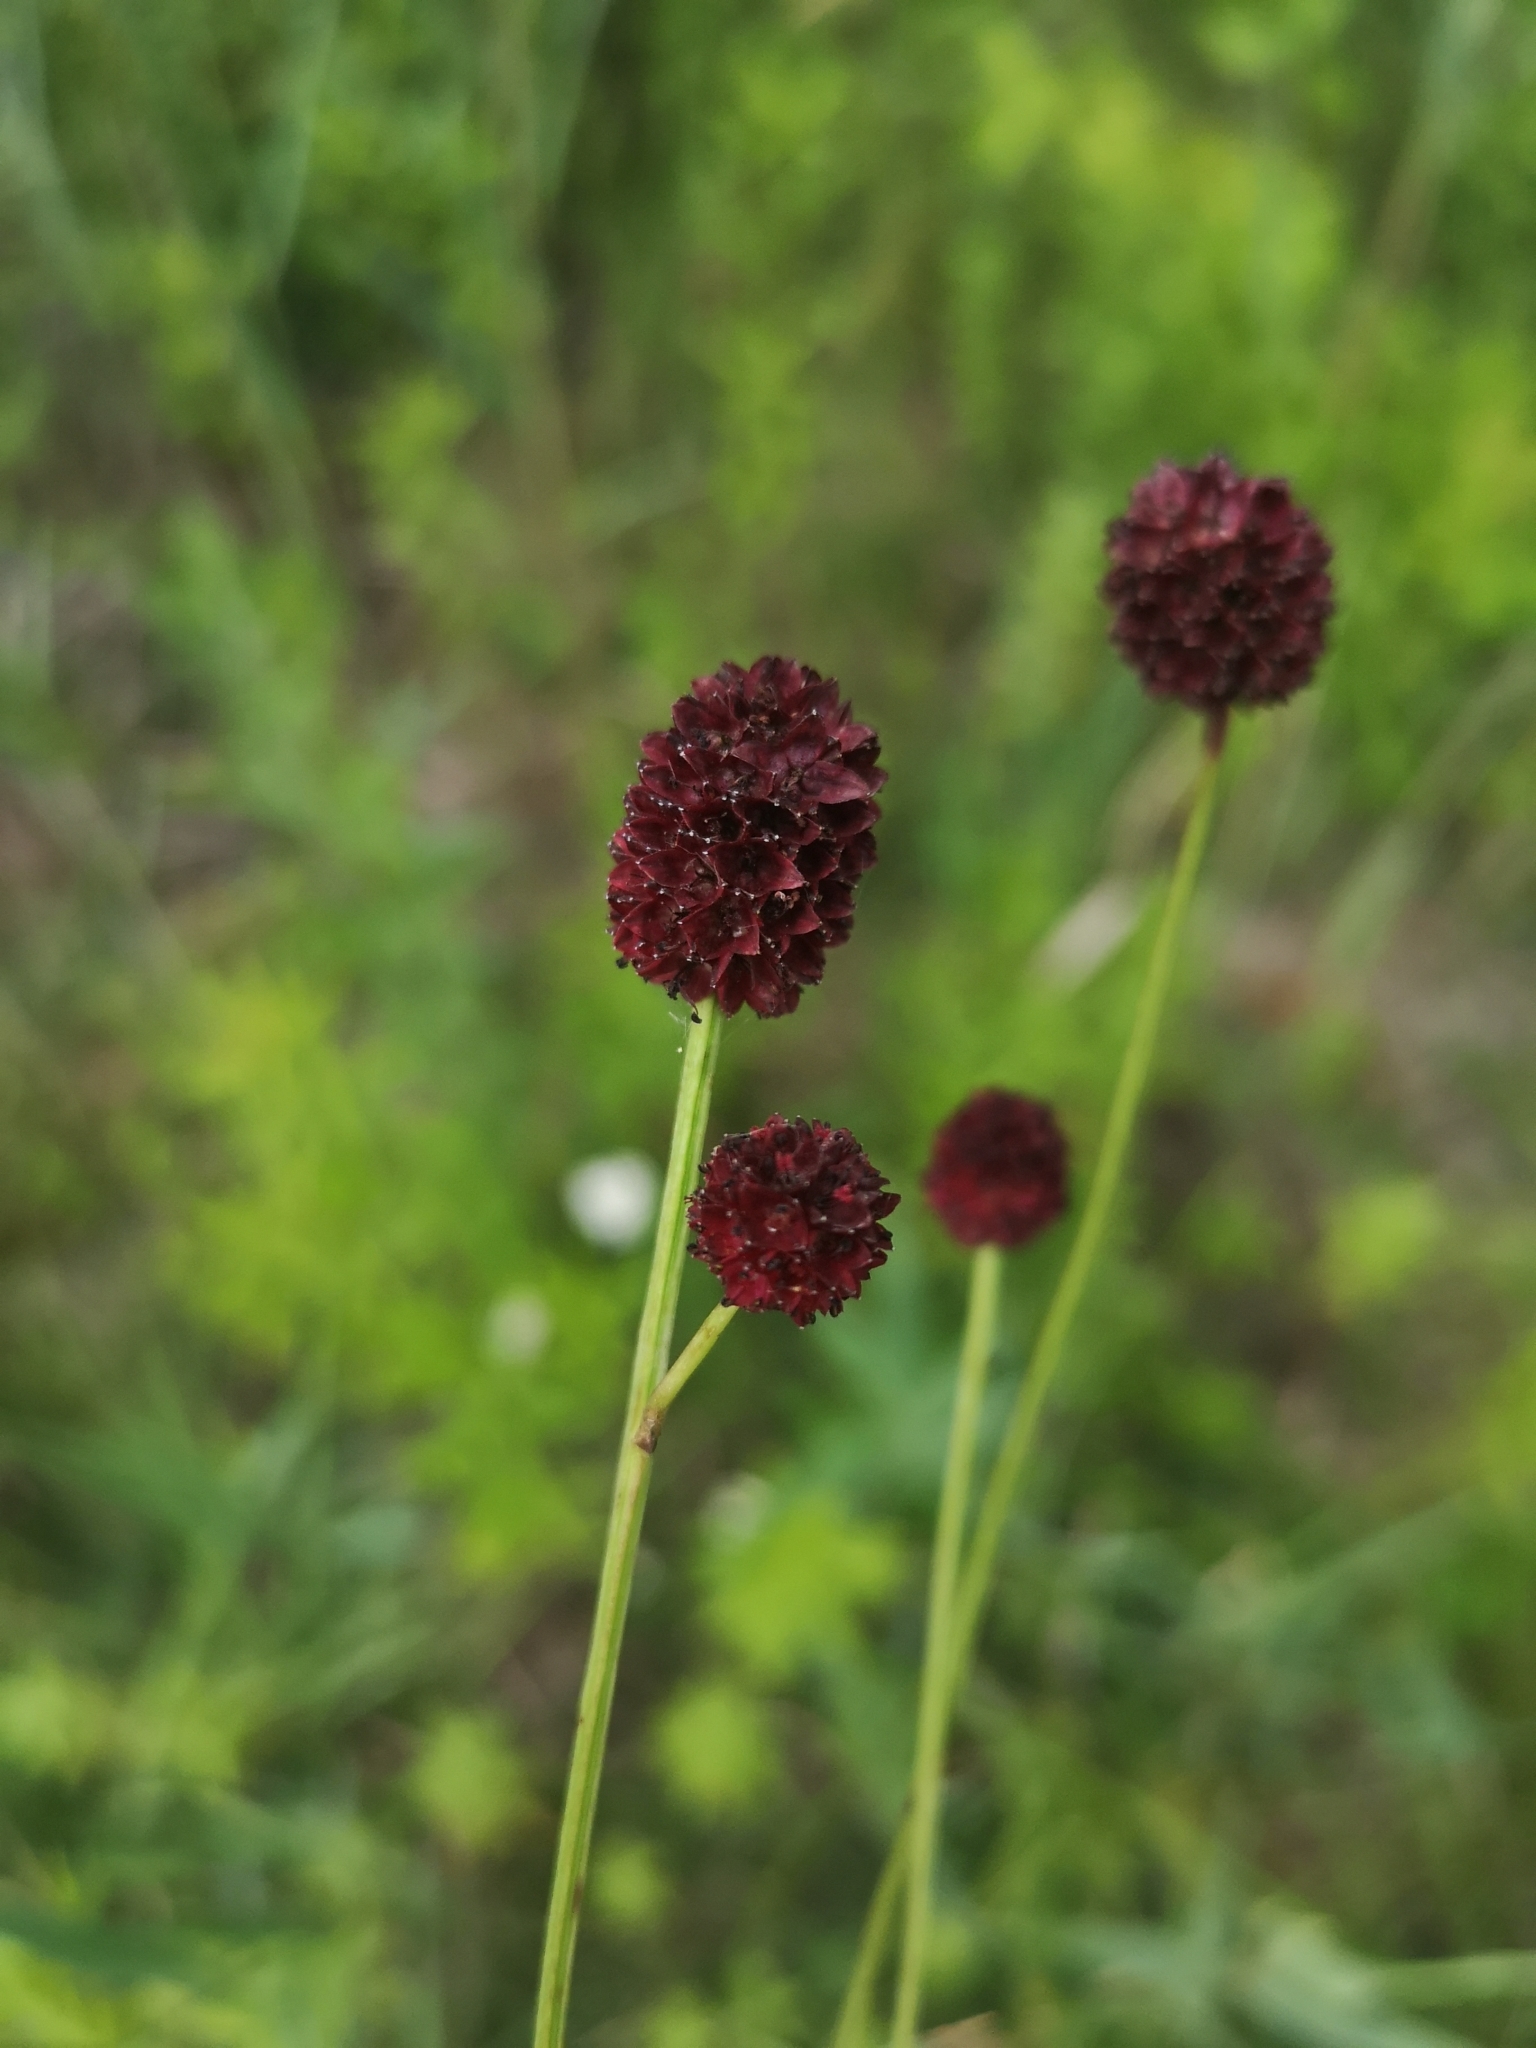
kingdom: Plantae
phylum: Tracheophyta
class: Magnoliopsida
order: Rosales
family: Rosaceae
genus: Sanguisorba
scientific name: Sanguisorba officinalis
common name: Great burnet
